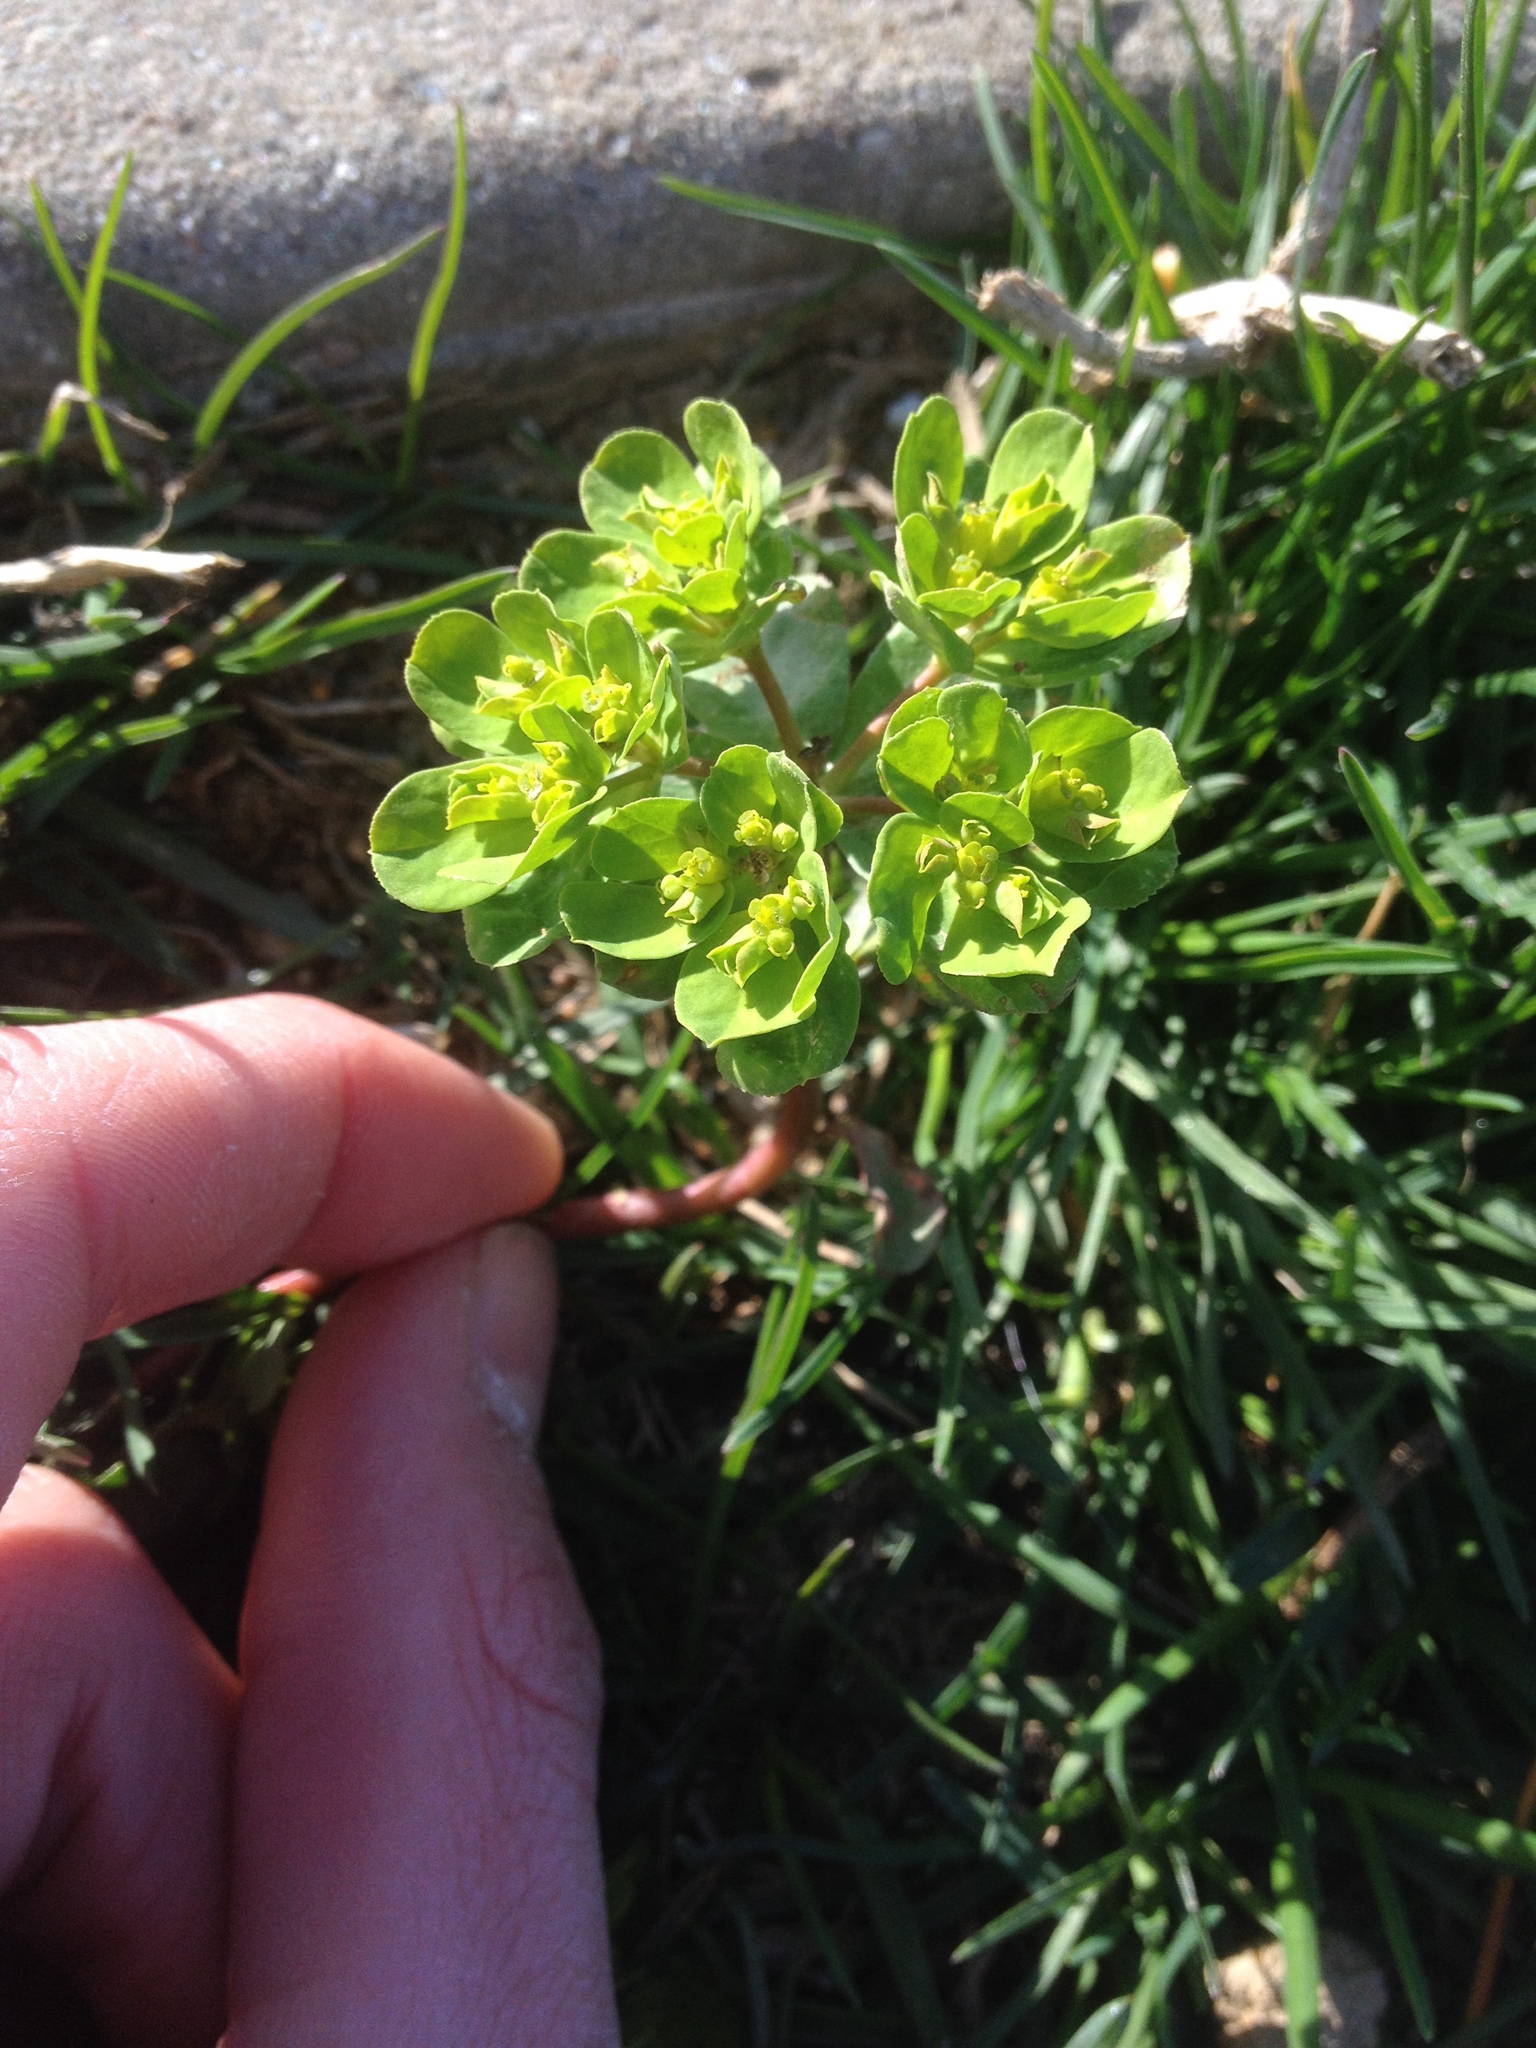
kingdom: Plantae
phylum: Tracheophyta
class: Magnoliopsida
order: Malpighiales
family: Euphorbiaceae
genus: Euphorbia
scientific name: Euphorbia helioscopia
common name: Sun spurge
